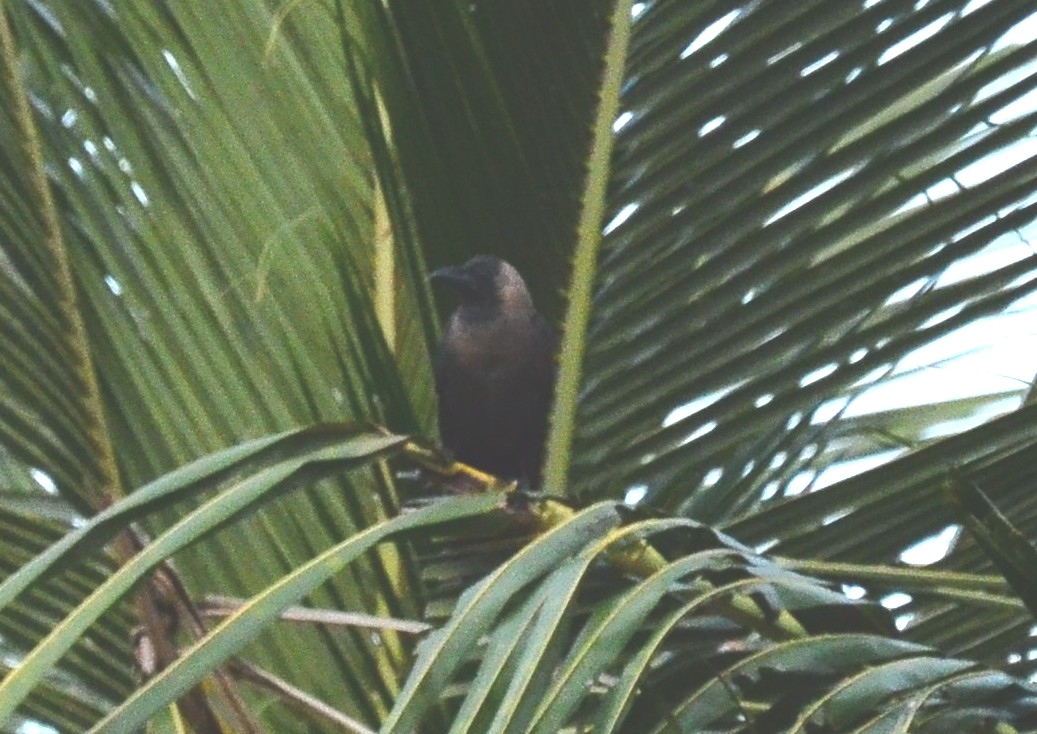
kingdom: Animalia
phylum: Chordata
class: Aves
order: Passeriformes
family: Corvidae
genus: Corvus
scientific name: Corvus splendens
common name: House crow
